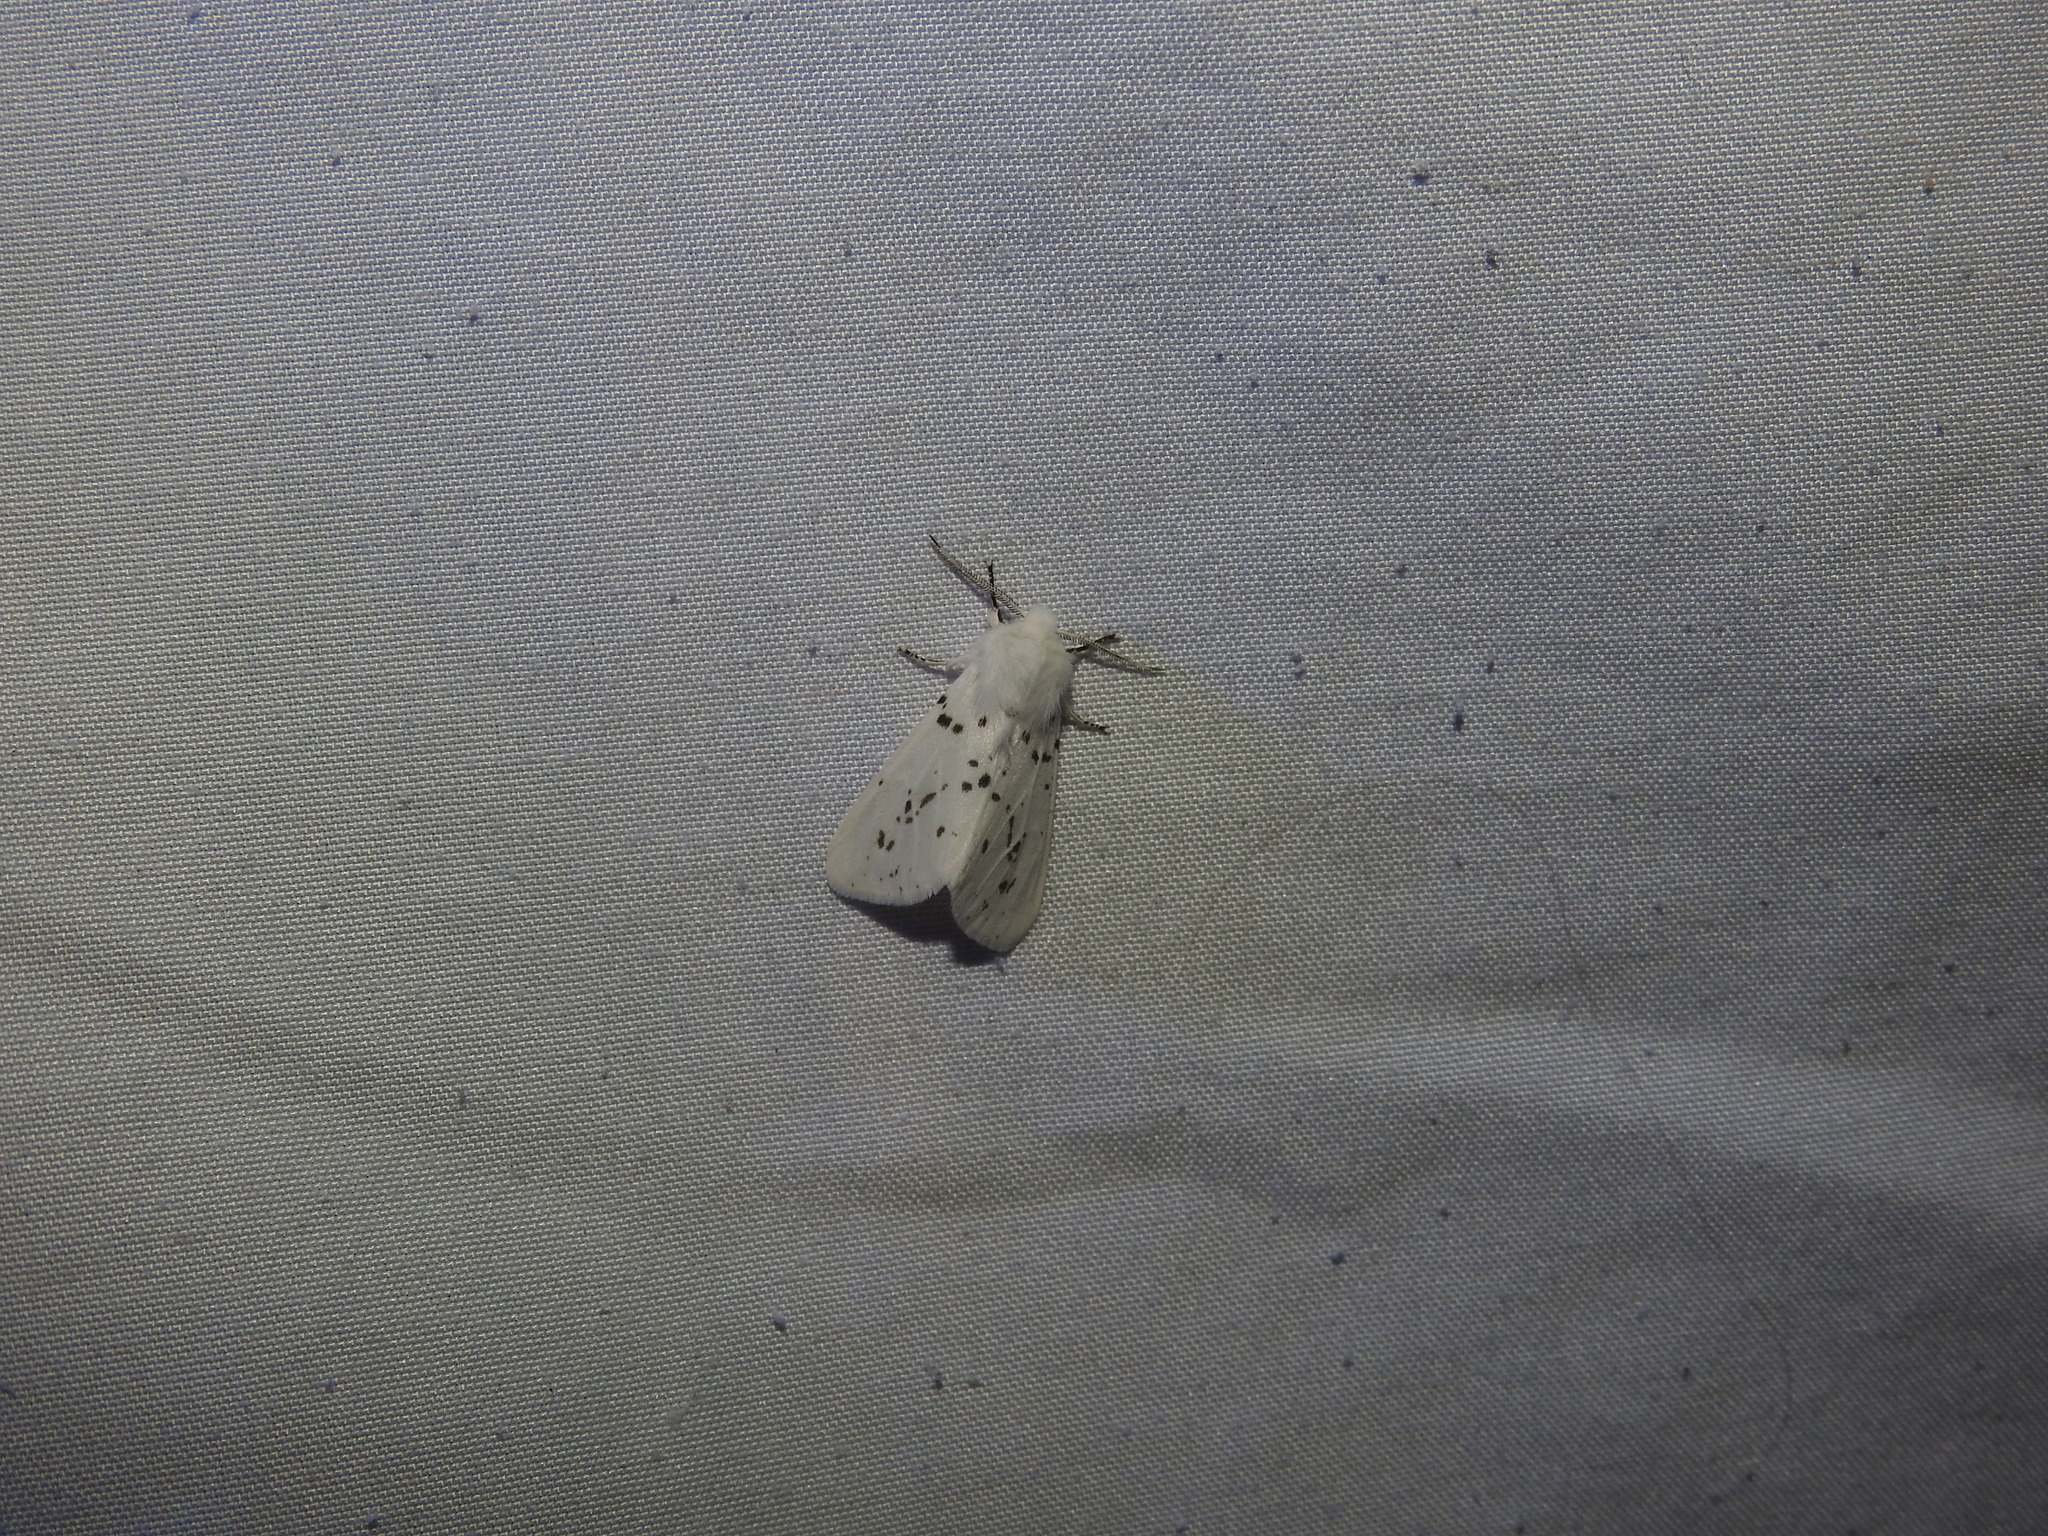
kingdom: Animalia
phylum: Arthropoda
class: Insecta
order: Lepidoptera
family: Erebidae
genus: Hyphantria
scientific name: Hyphantria cunea
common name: American white moth
